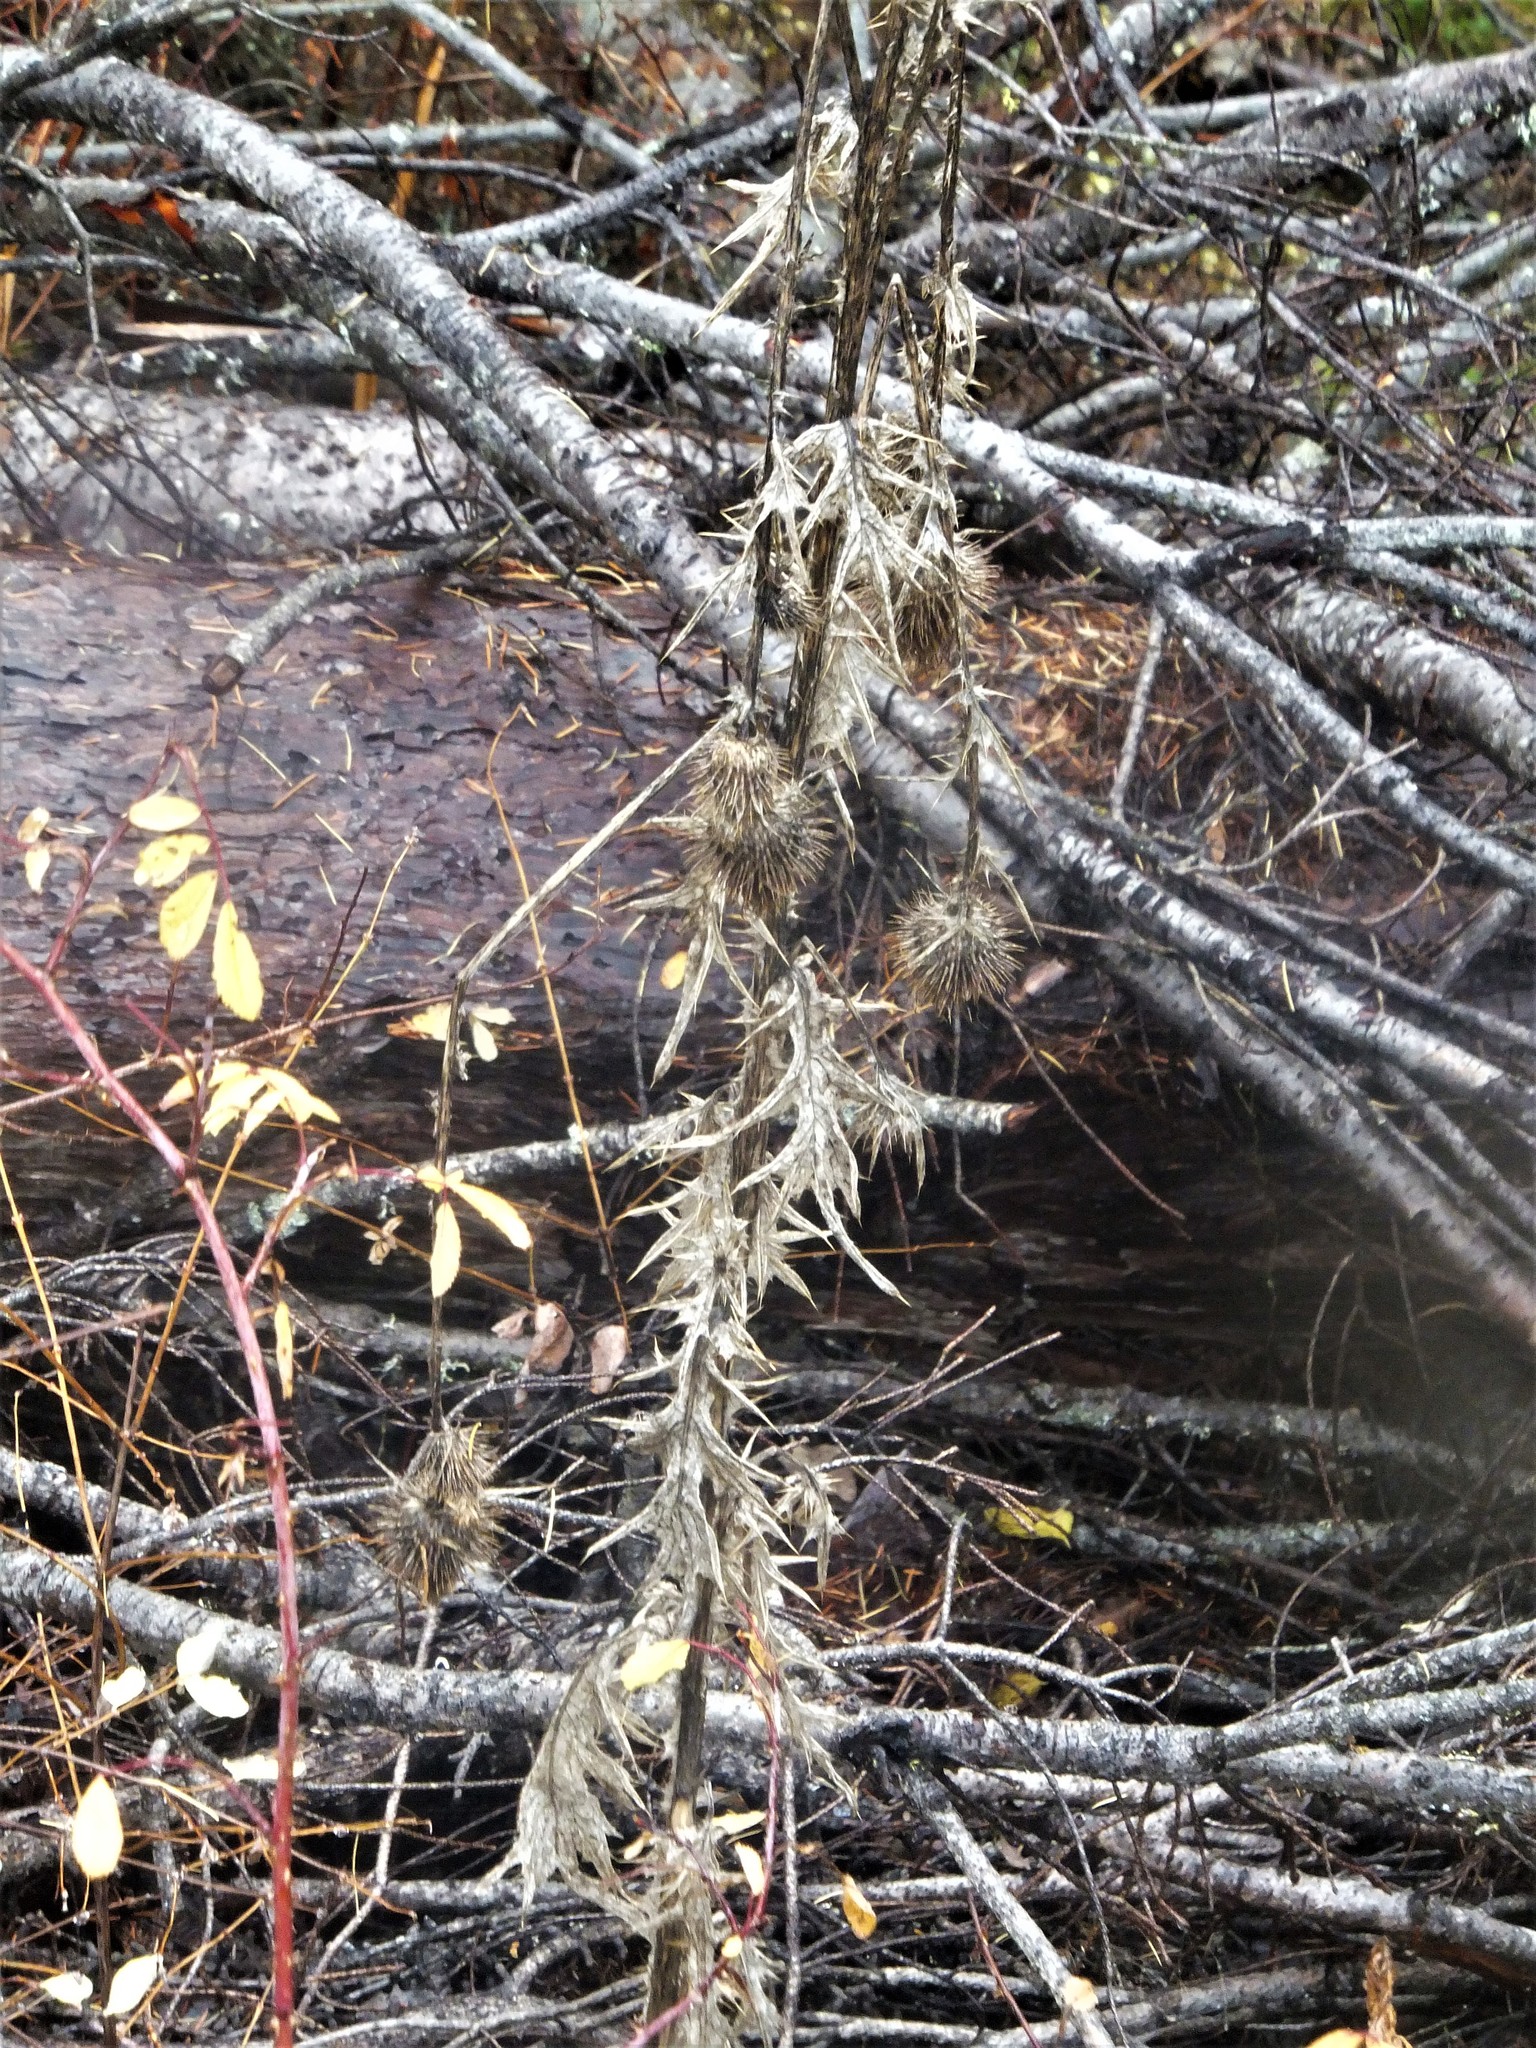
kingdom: Plantae
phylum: Tracheophyta
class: Magnoliopsida
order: Asterales
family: Asteraceae
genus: Cirsium
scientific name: Cirsium vulgare
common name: Bull thistle
